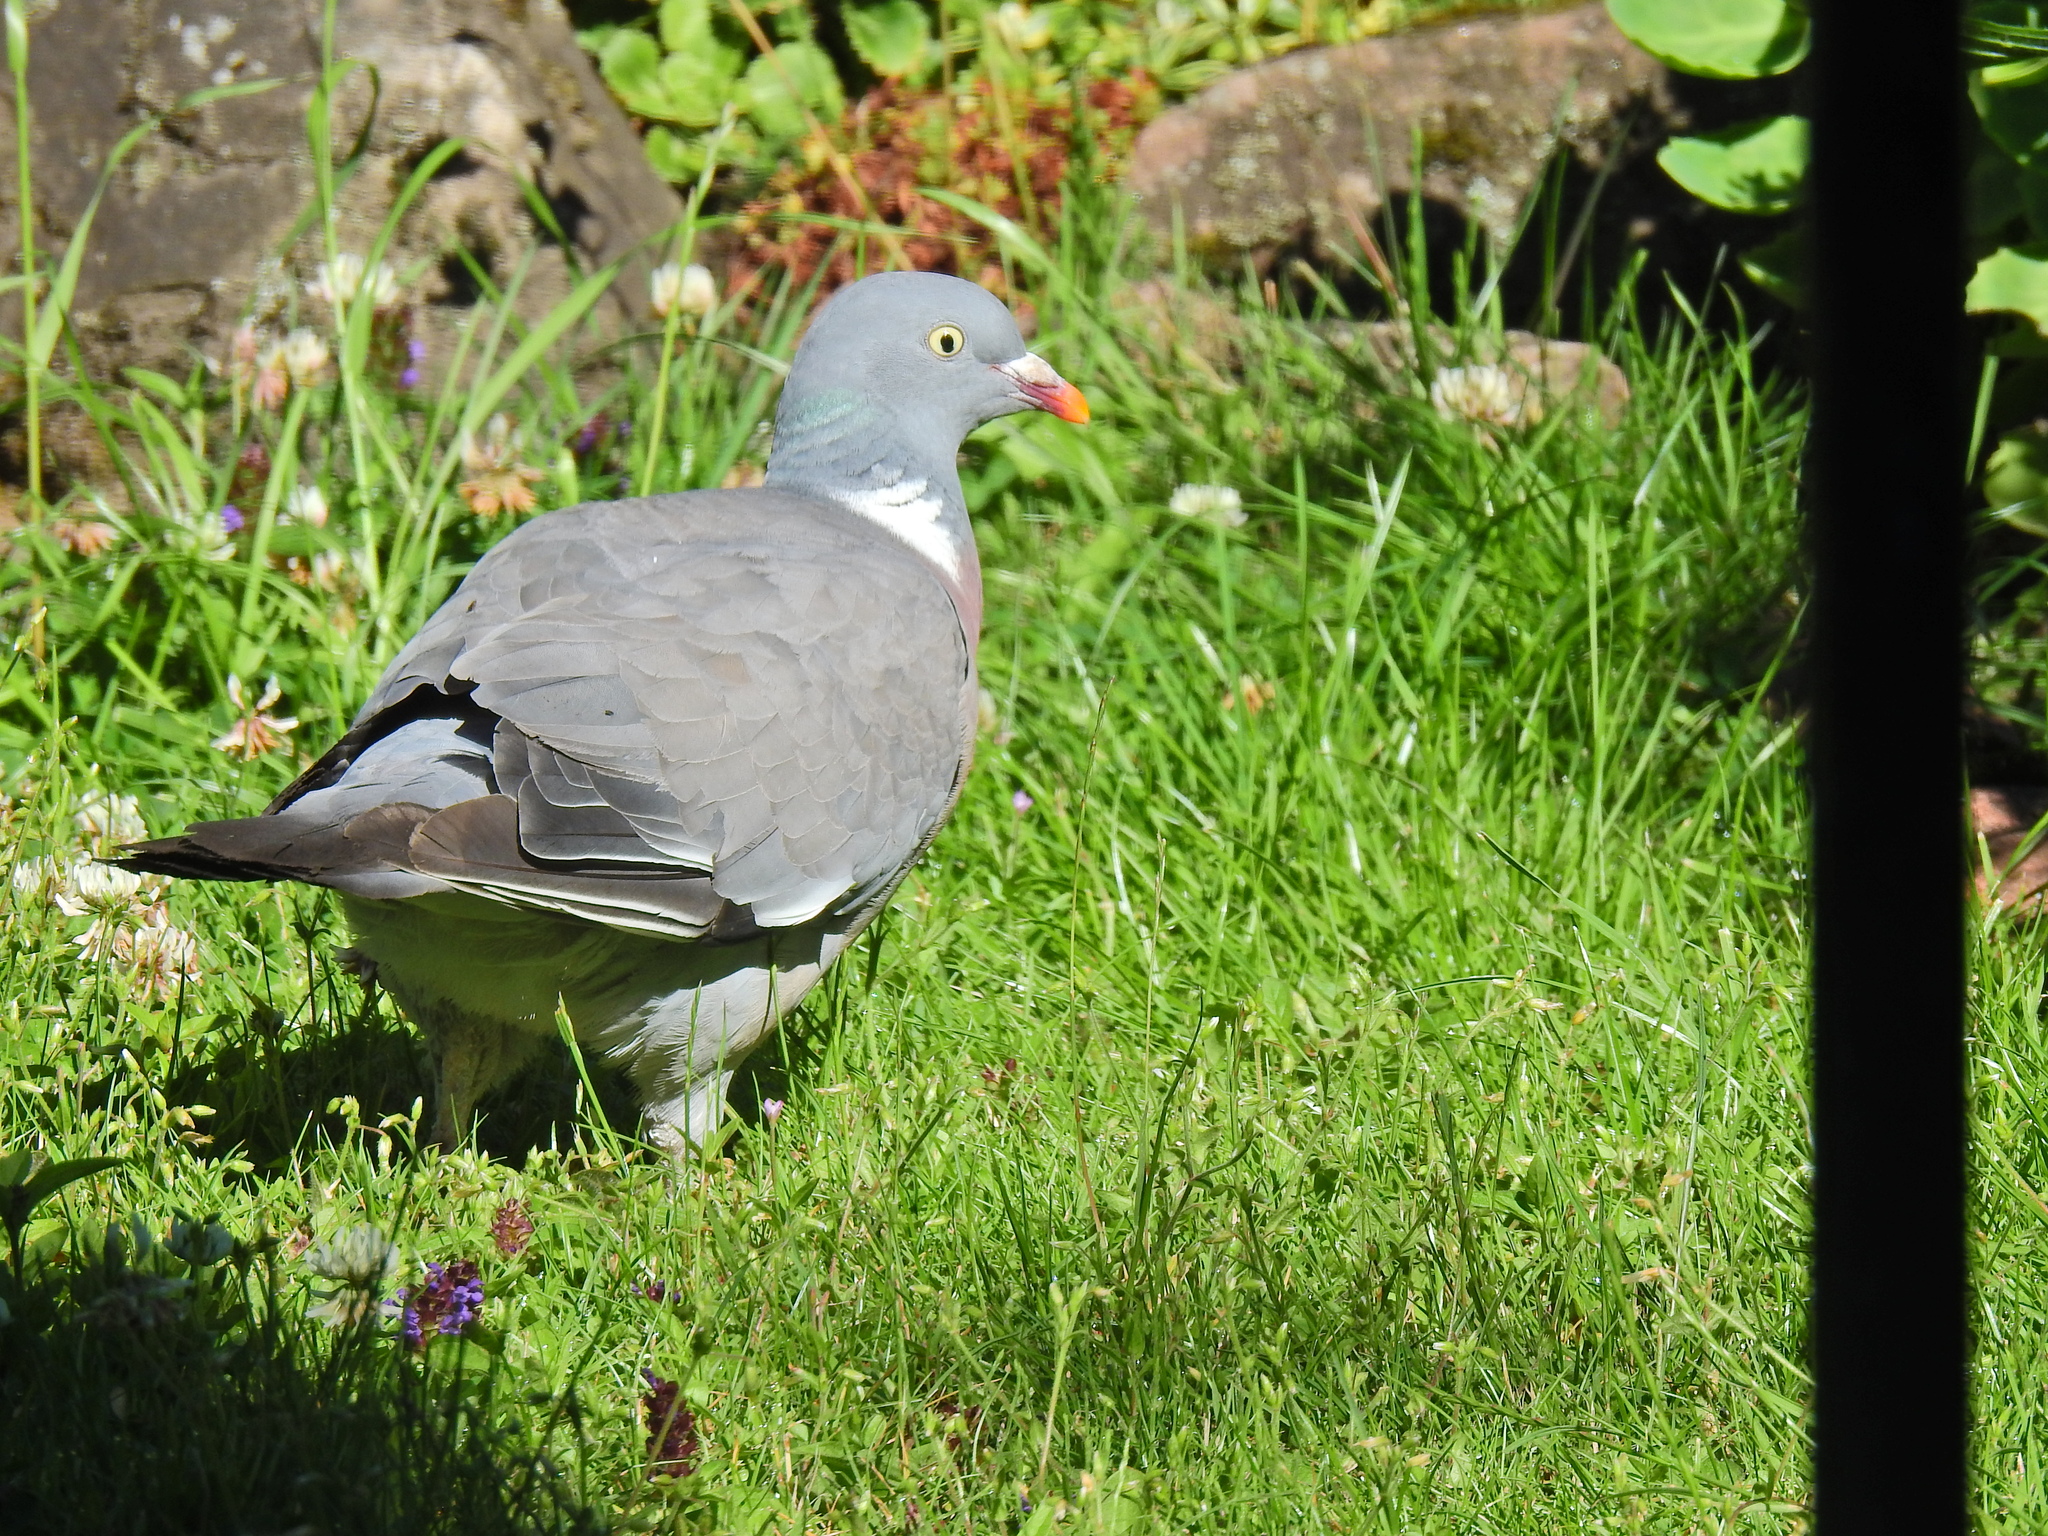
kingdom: Animalia
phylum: Chordata
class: Aves
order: Columbiformes
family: Columbidae
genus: Columba
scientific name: Columba palumbus
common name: Common wood pigeon
